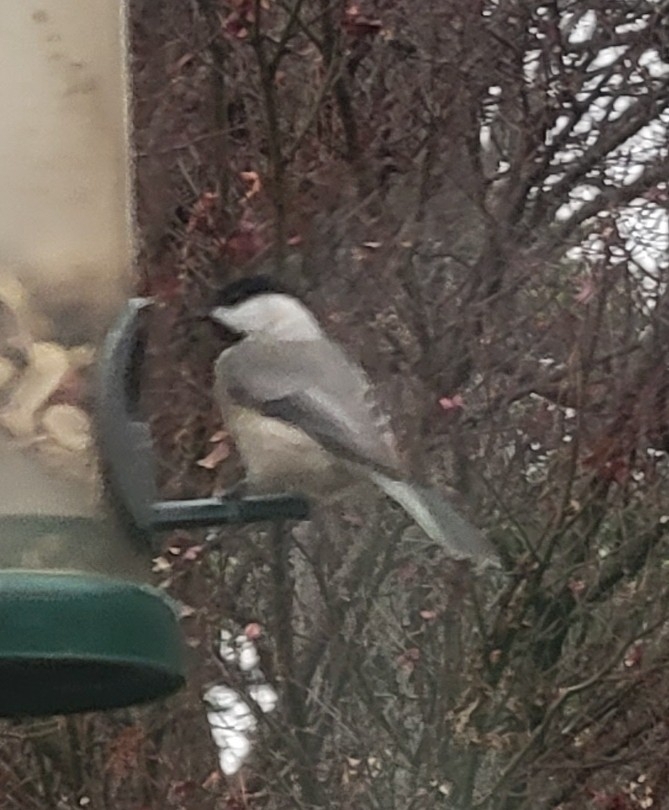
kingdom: Animalia
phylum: Chordata
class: Aves
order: Passeriformes
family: Paridae
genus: Poecile
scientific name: Poecile carolinensis
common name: Carolina chickadee
